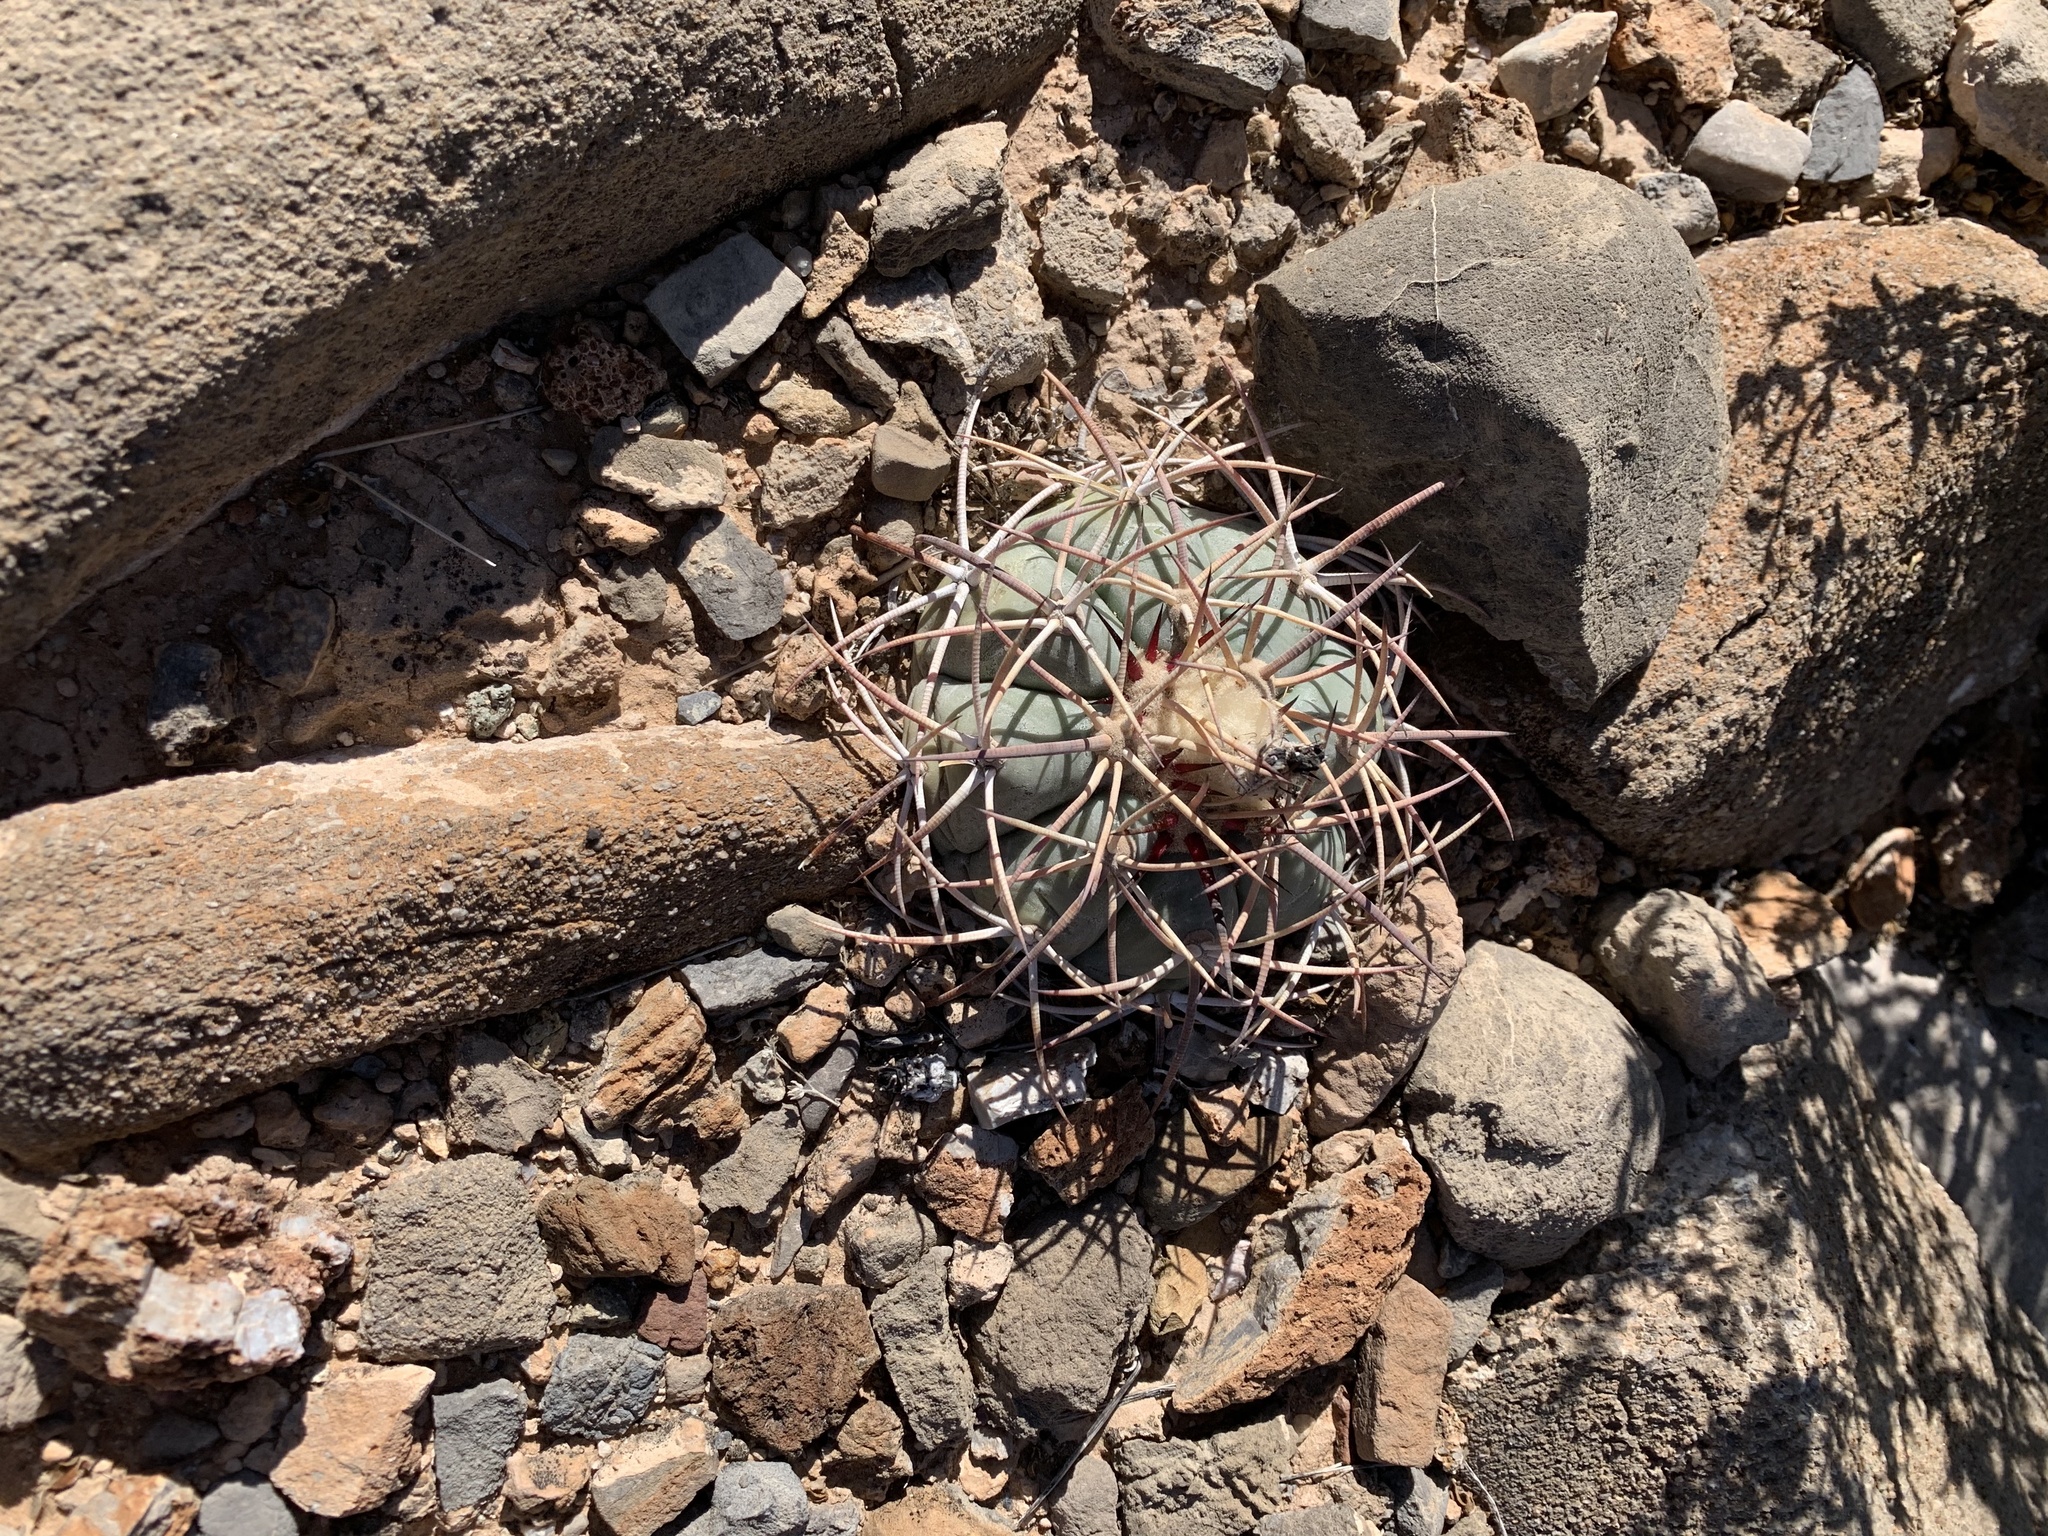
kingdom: Plantae
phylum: Tracheophyta
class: Magnoliopsida
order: Caryophyllales
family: Cactaceae
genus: Echinocactus
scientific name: Echinocactus horizonthalonius
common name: Devilshead
